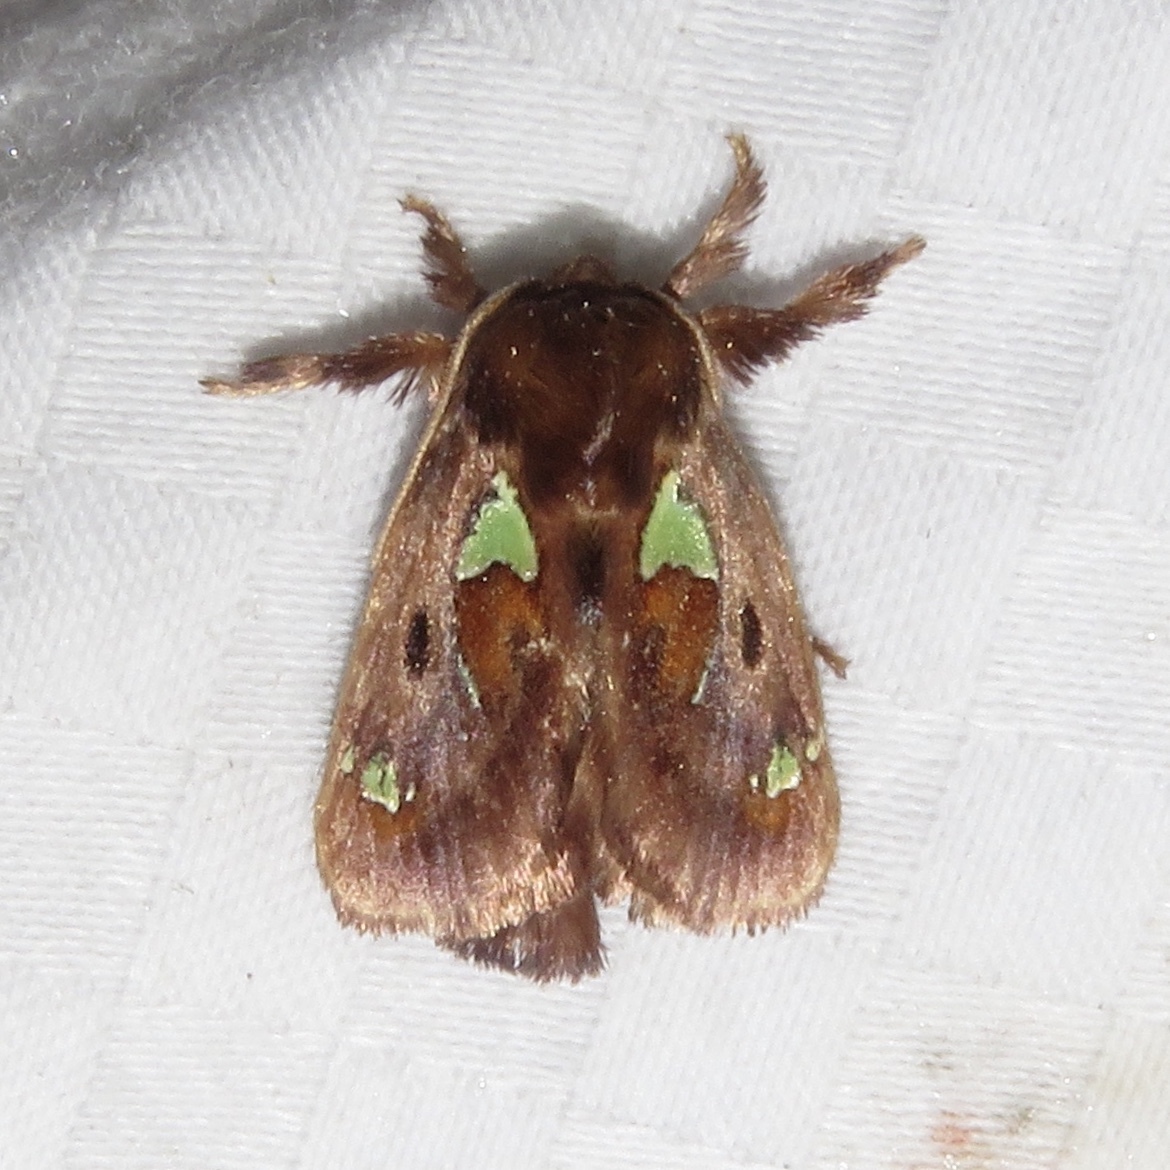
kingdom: Animalia
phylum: Arthropoda
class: Insecta
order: Lepidoptera
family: Limacodidae
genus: Euclea
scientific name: Euclea delphinii
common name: Spiny oak-slug moth
